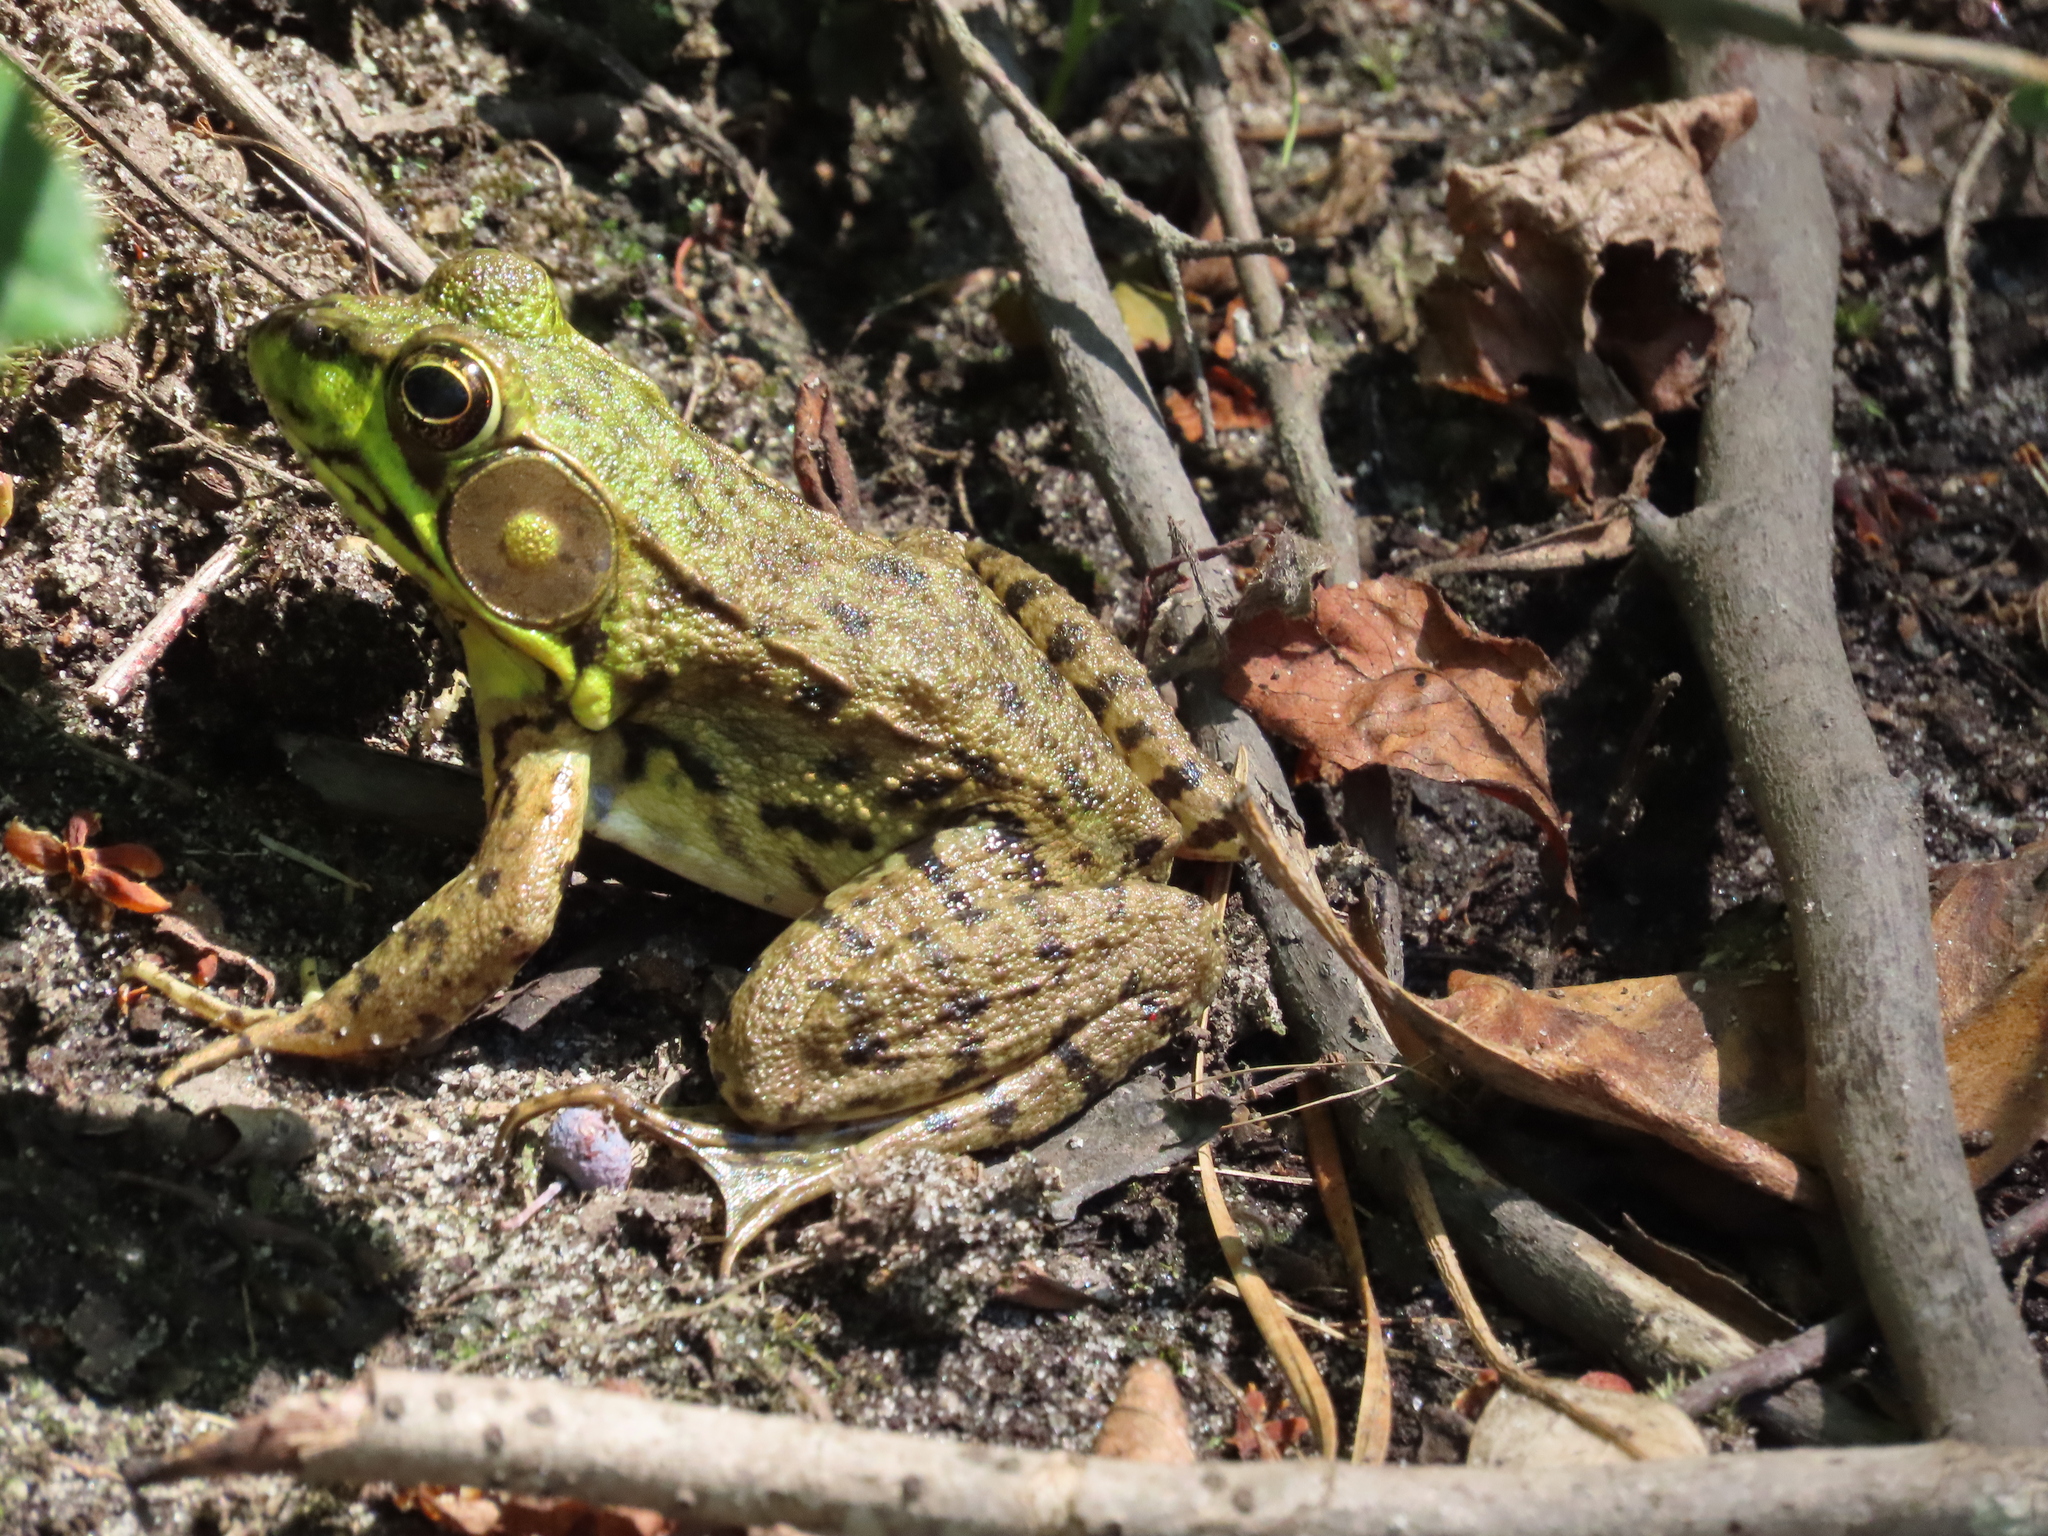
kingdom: Animalia
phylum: Chordata
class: Amphibia
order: Anura
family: Ranidae
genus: Lithobates
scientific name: Lithobates clamitans
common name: Green frog
